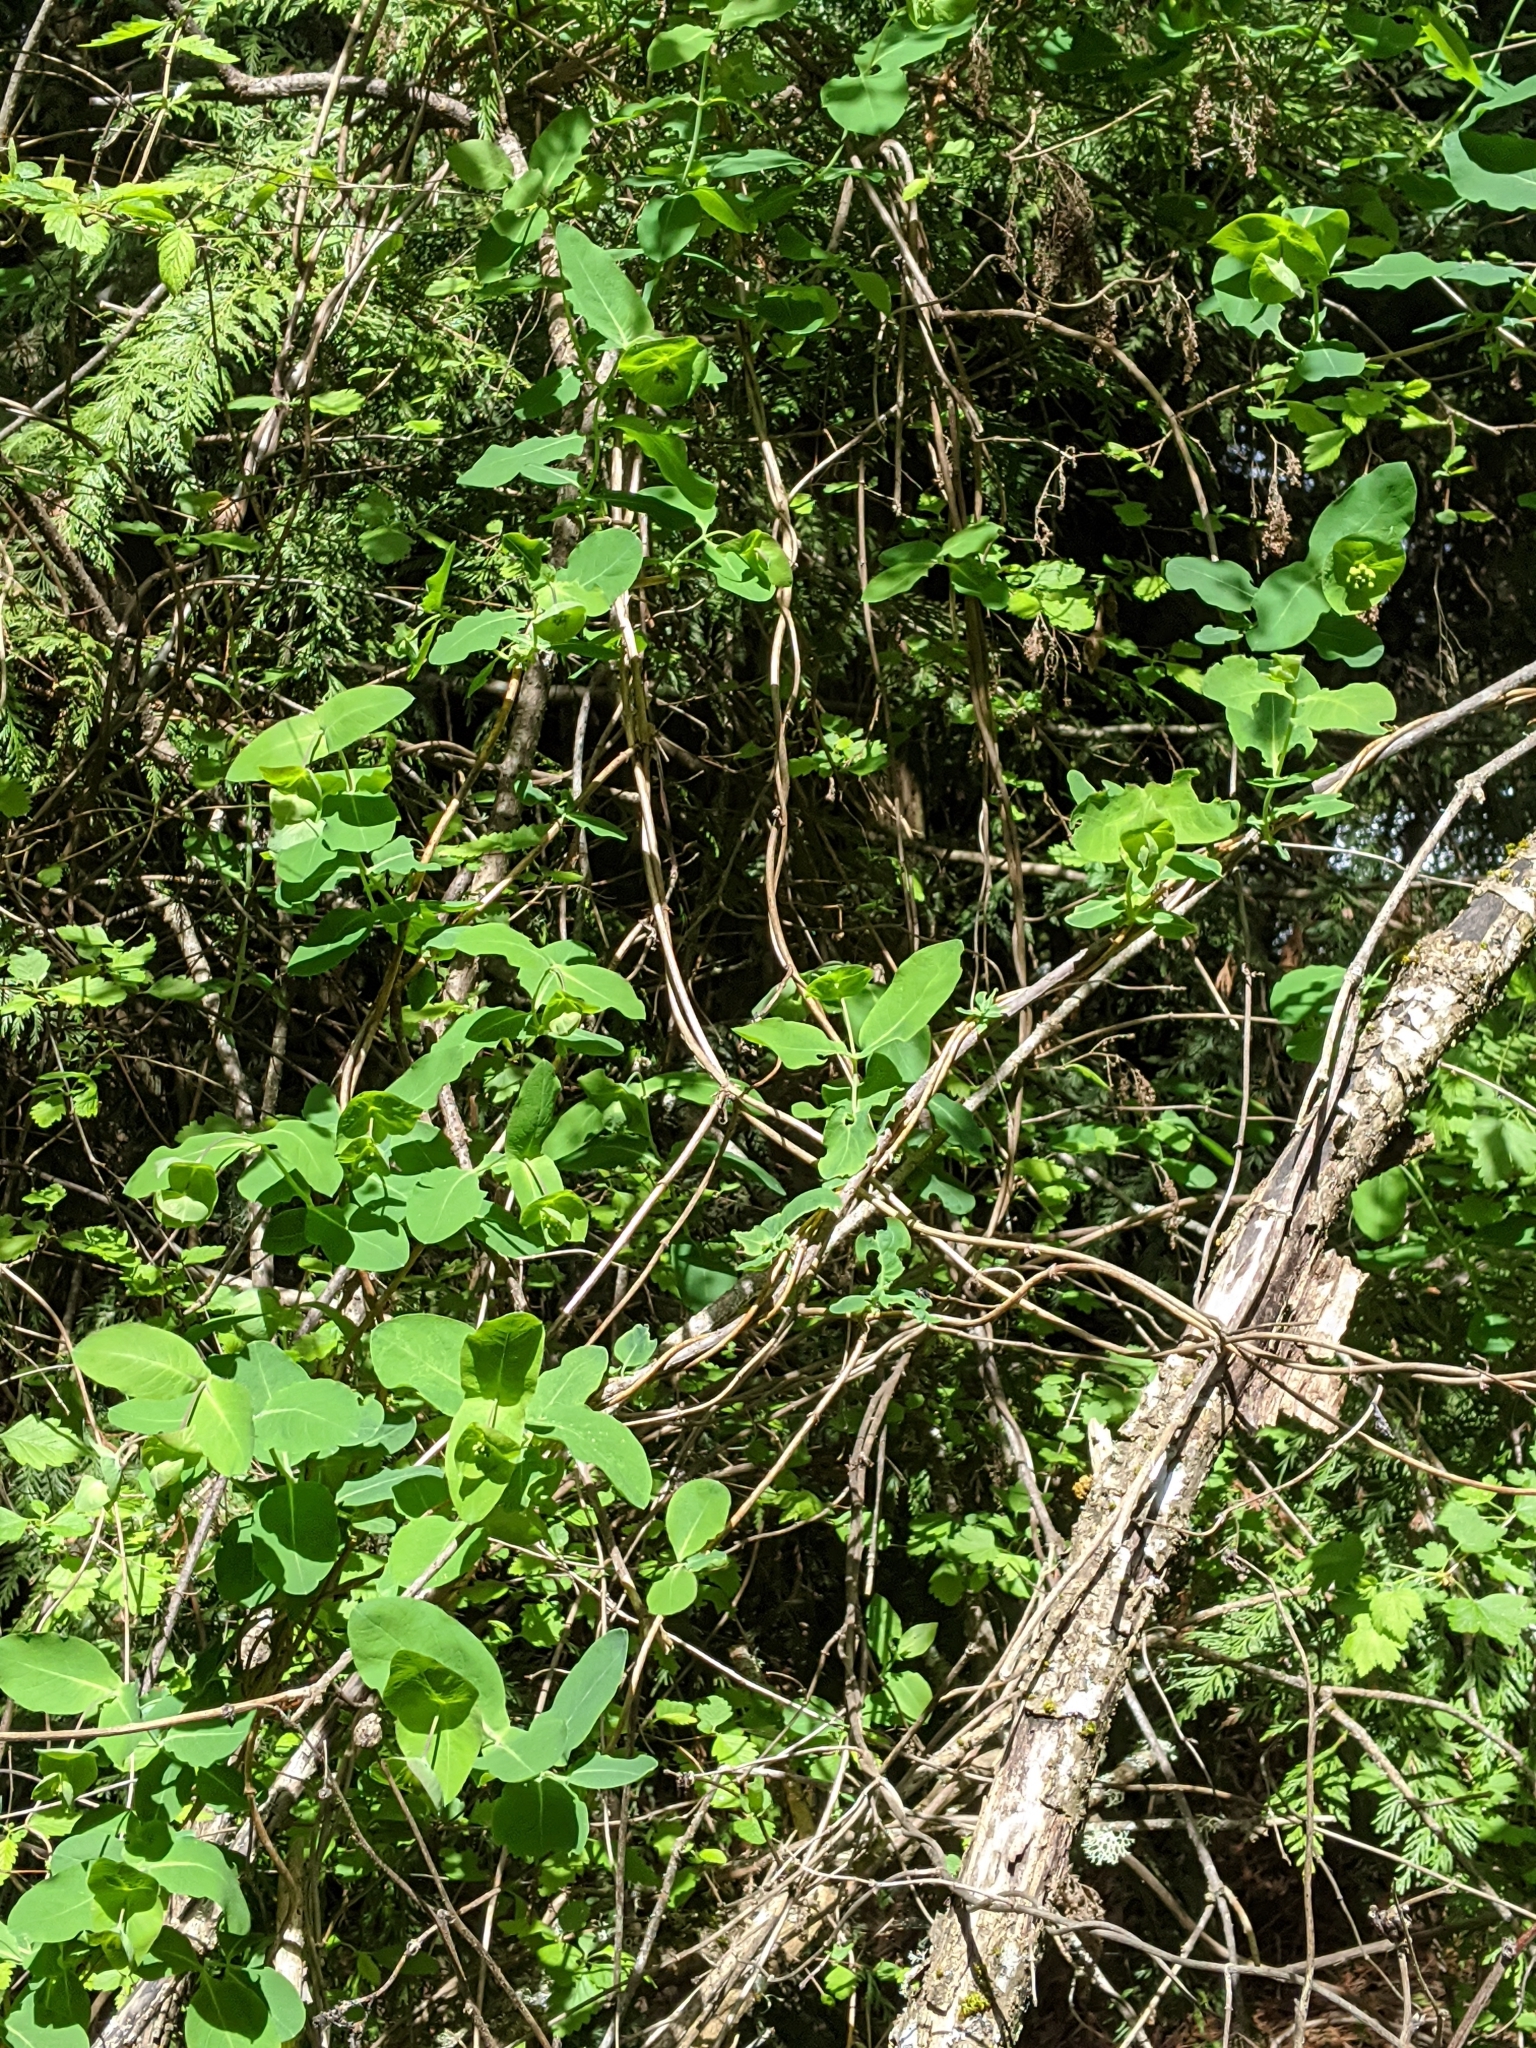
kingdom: Plantae
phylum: Tracheophyta
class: Magnoliopsida
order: Dipsacales
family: Caprifoliaceae
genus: Lonicera
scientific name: Lonicera ciliosa
